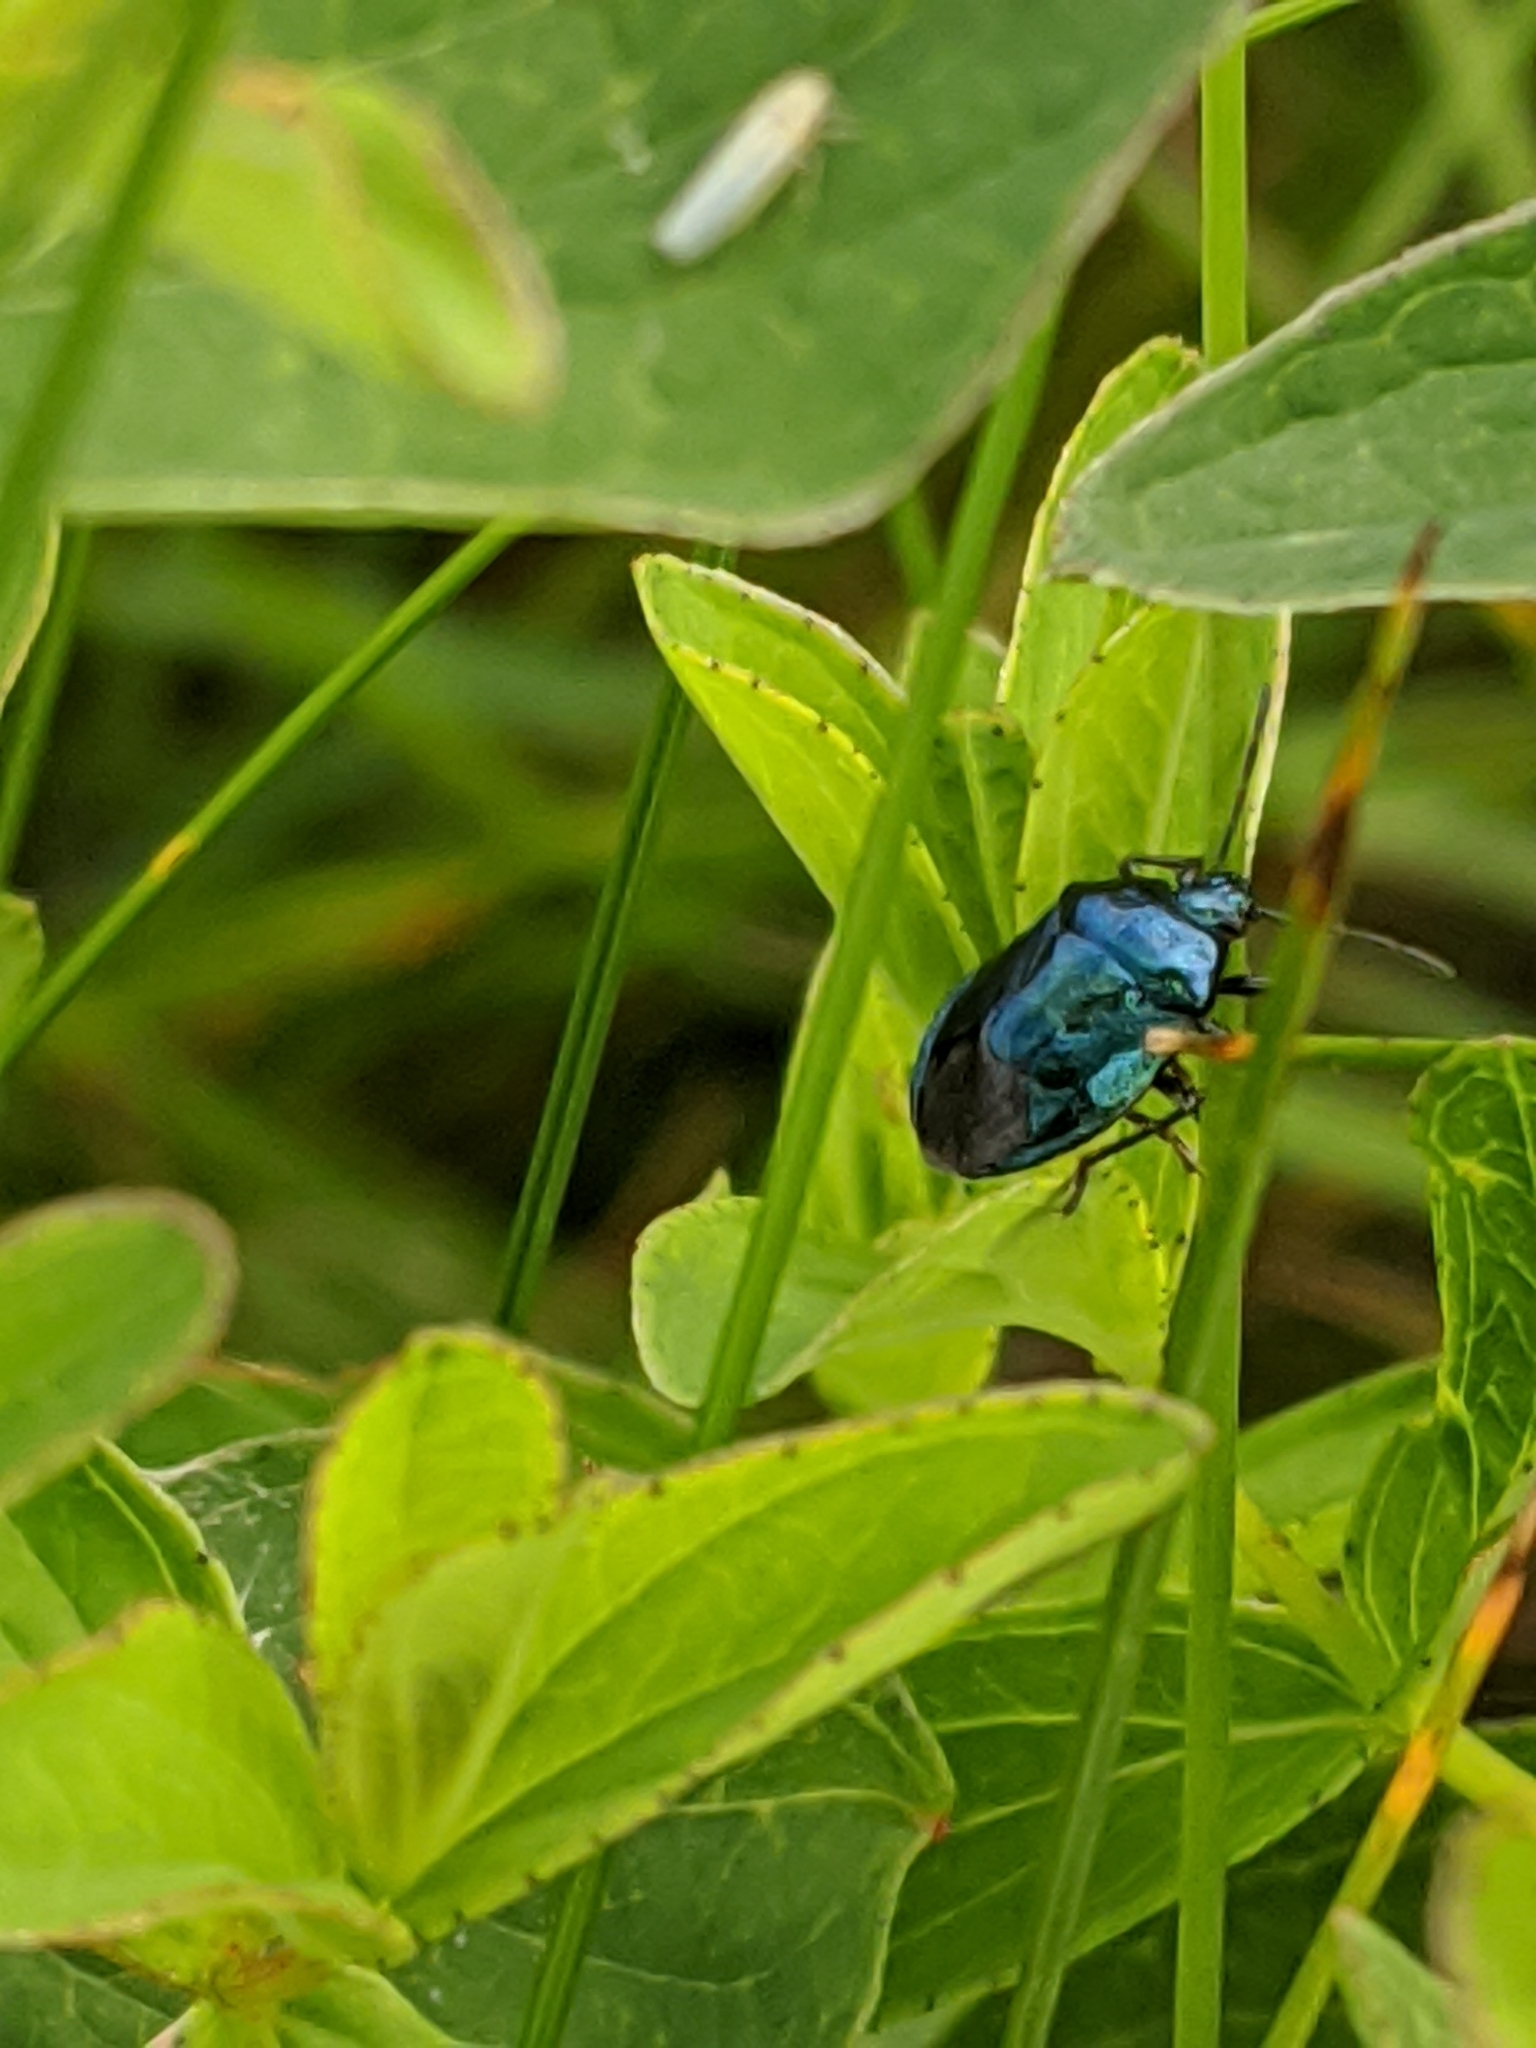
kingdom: Animalia
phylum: Arthropoda
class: Insecta
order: Hemiptera
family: Pentatomidae
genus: Zicrona
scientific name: Zicrona caerulea
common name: Blue shieldbug
